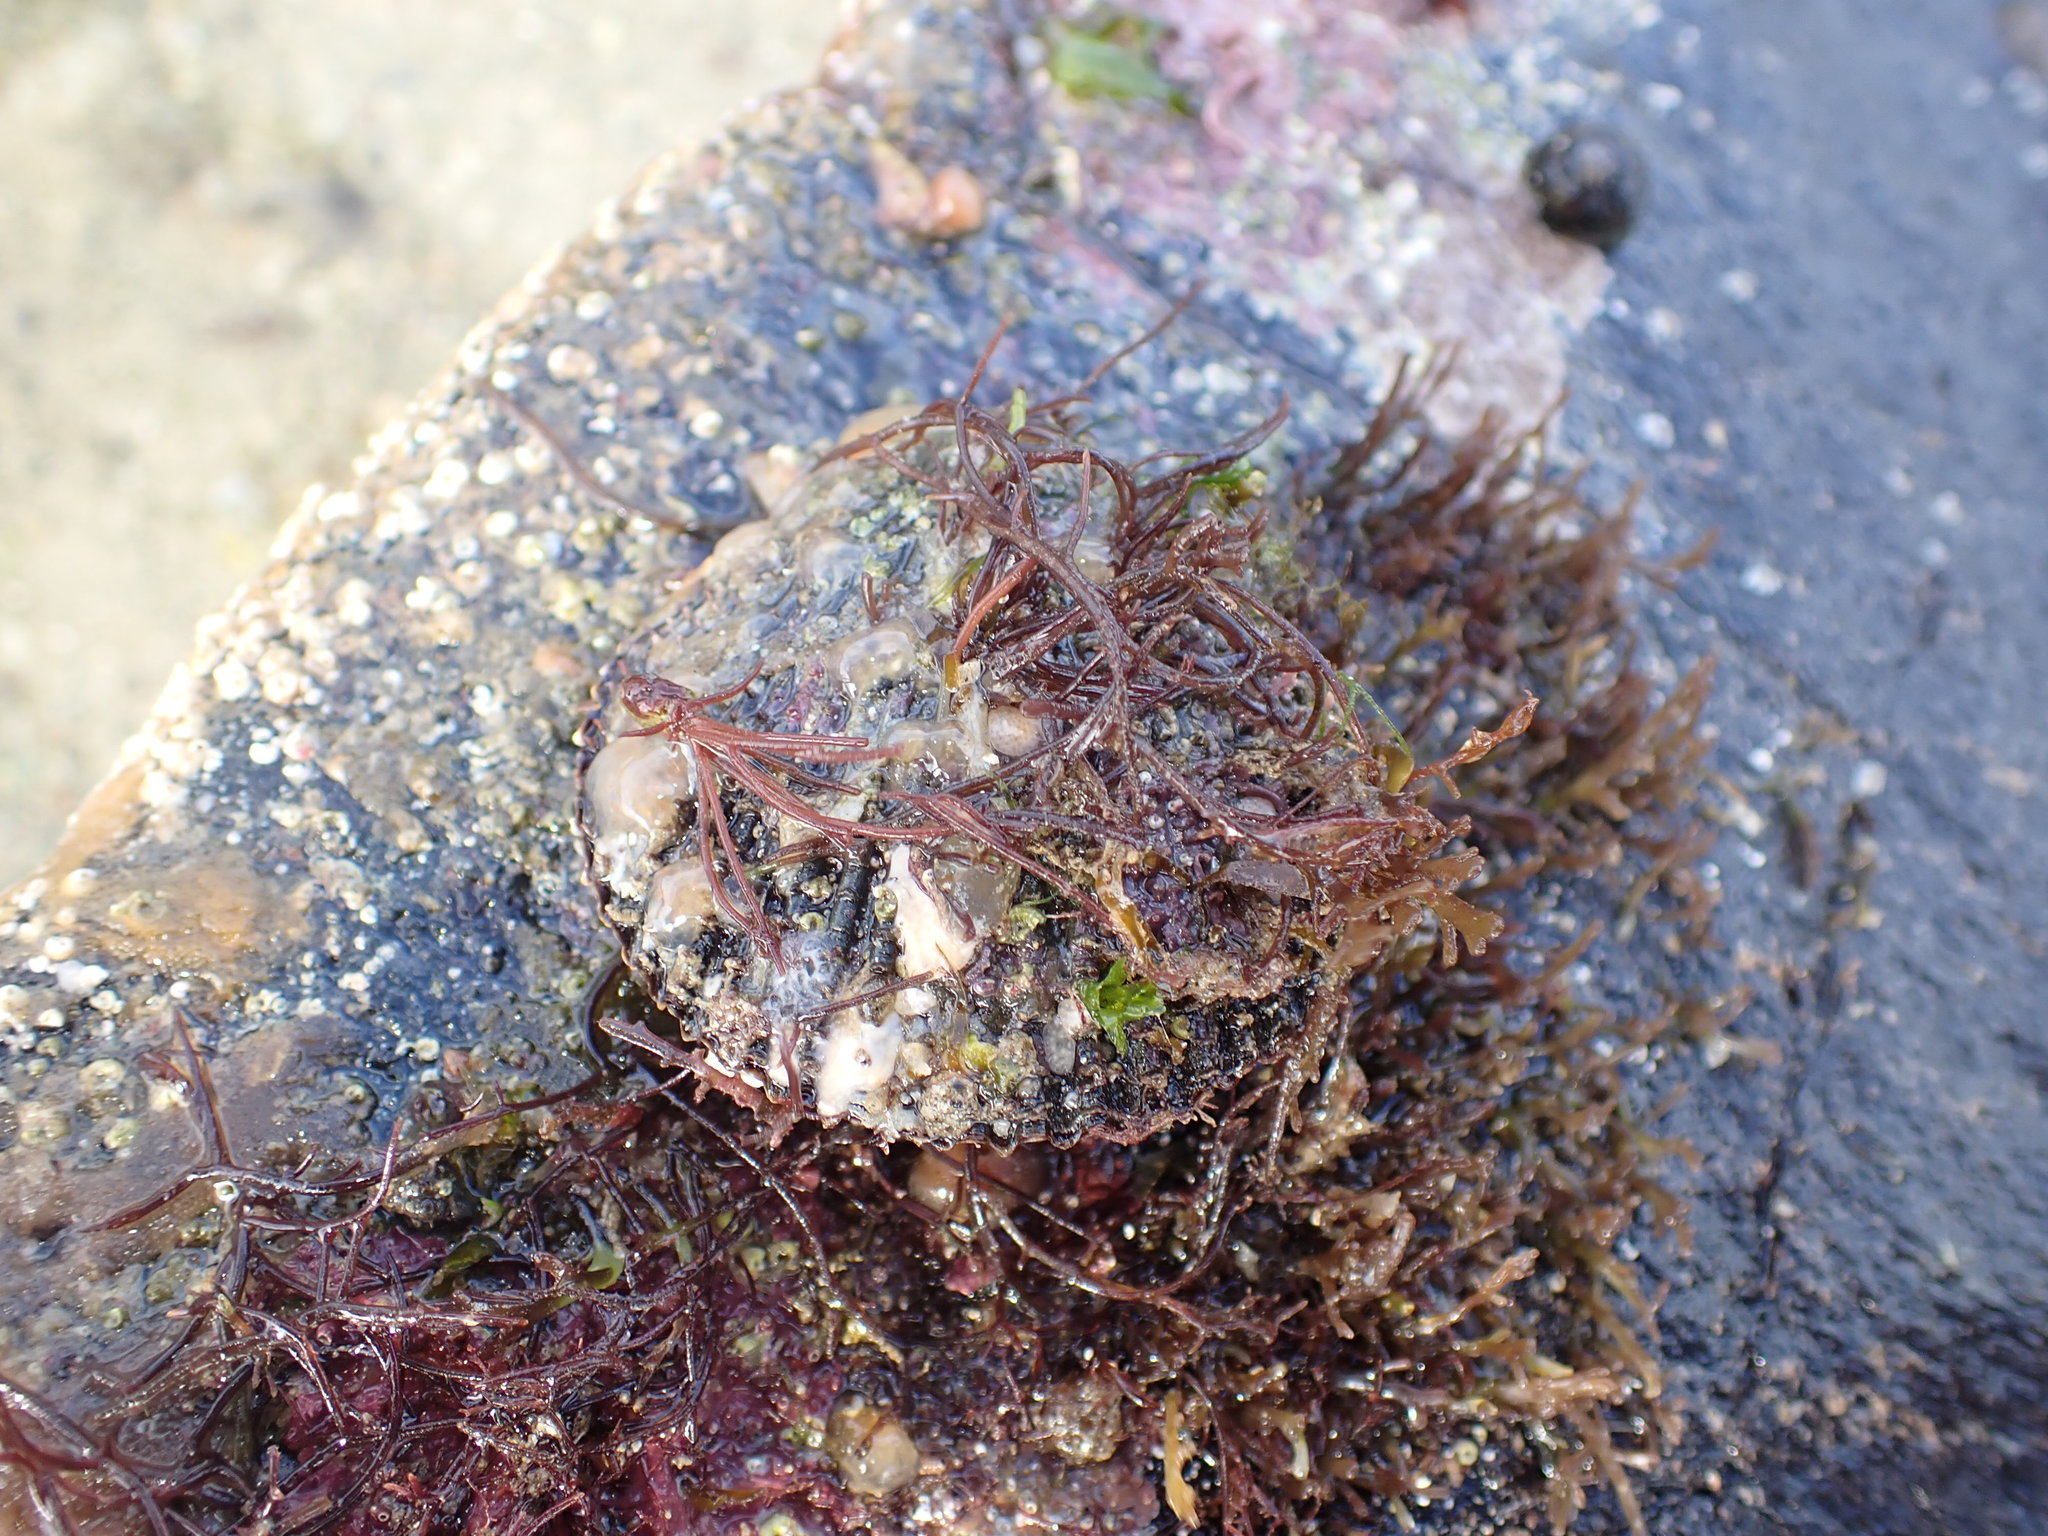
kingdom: Animalia
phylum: Mollusca
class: Bivalvia
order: Pectinida
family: Pectinidae
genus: Mimachlamys
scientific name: Mimachlamys varia
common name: Variegated scallop
